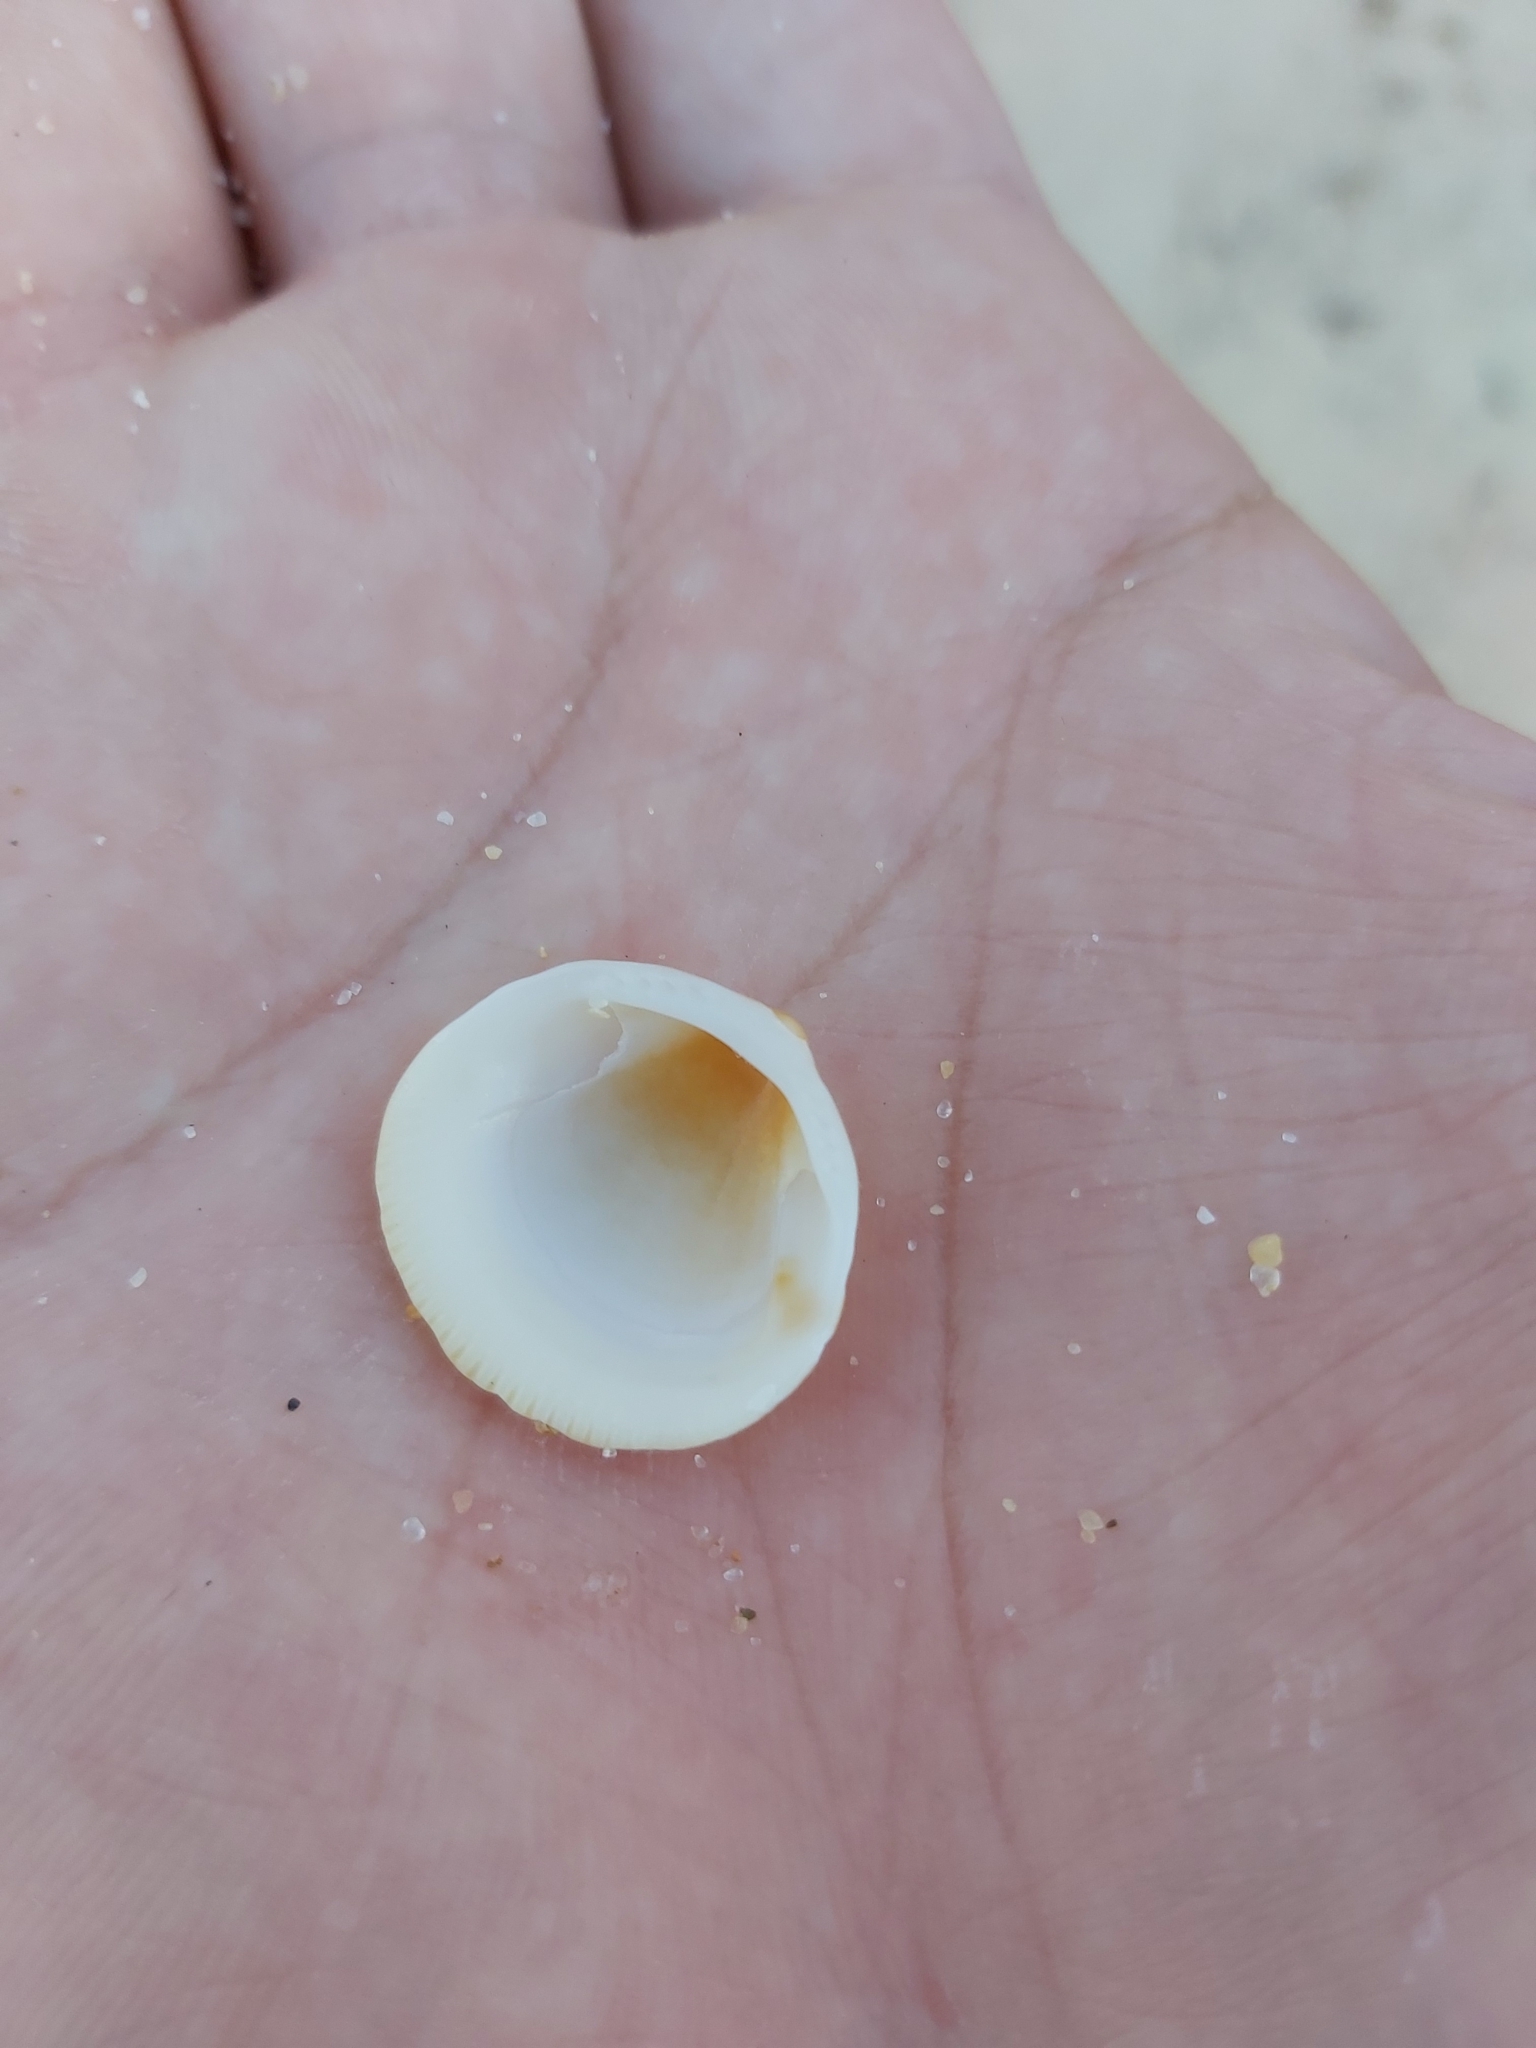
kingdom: Animalia
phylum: Mollusca
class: Bivalvia
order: Arcida
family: Glycymerididae
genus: Glycymeris
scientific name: Glycymeris grayana
